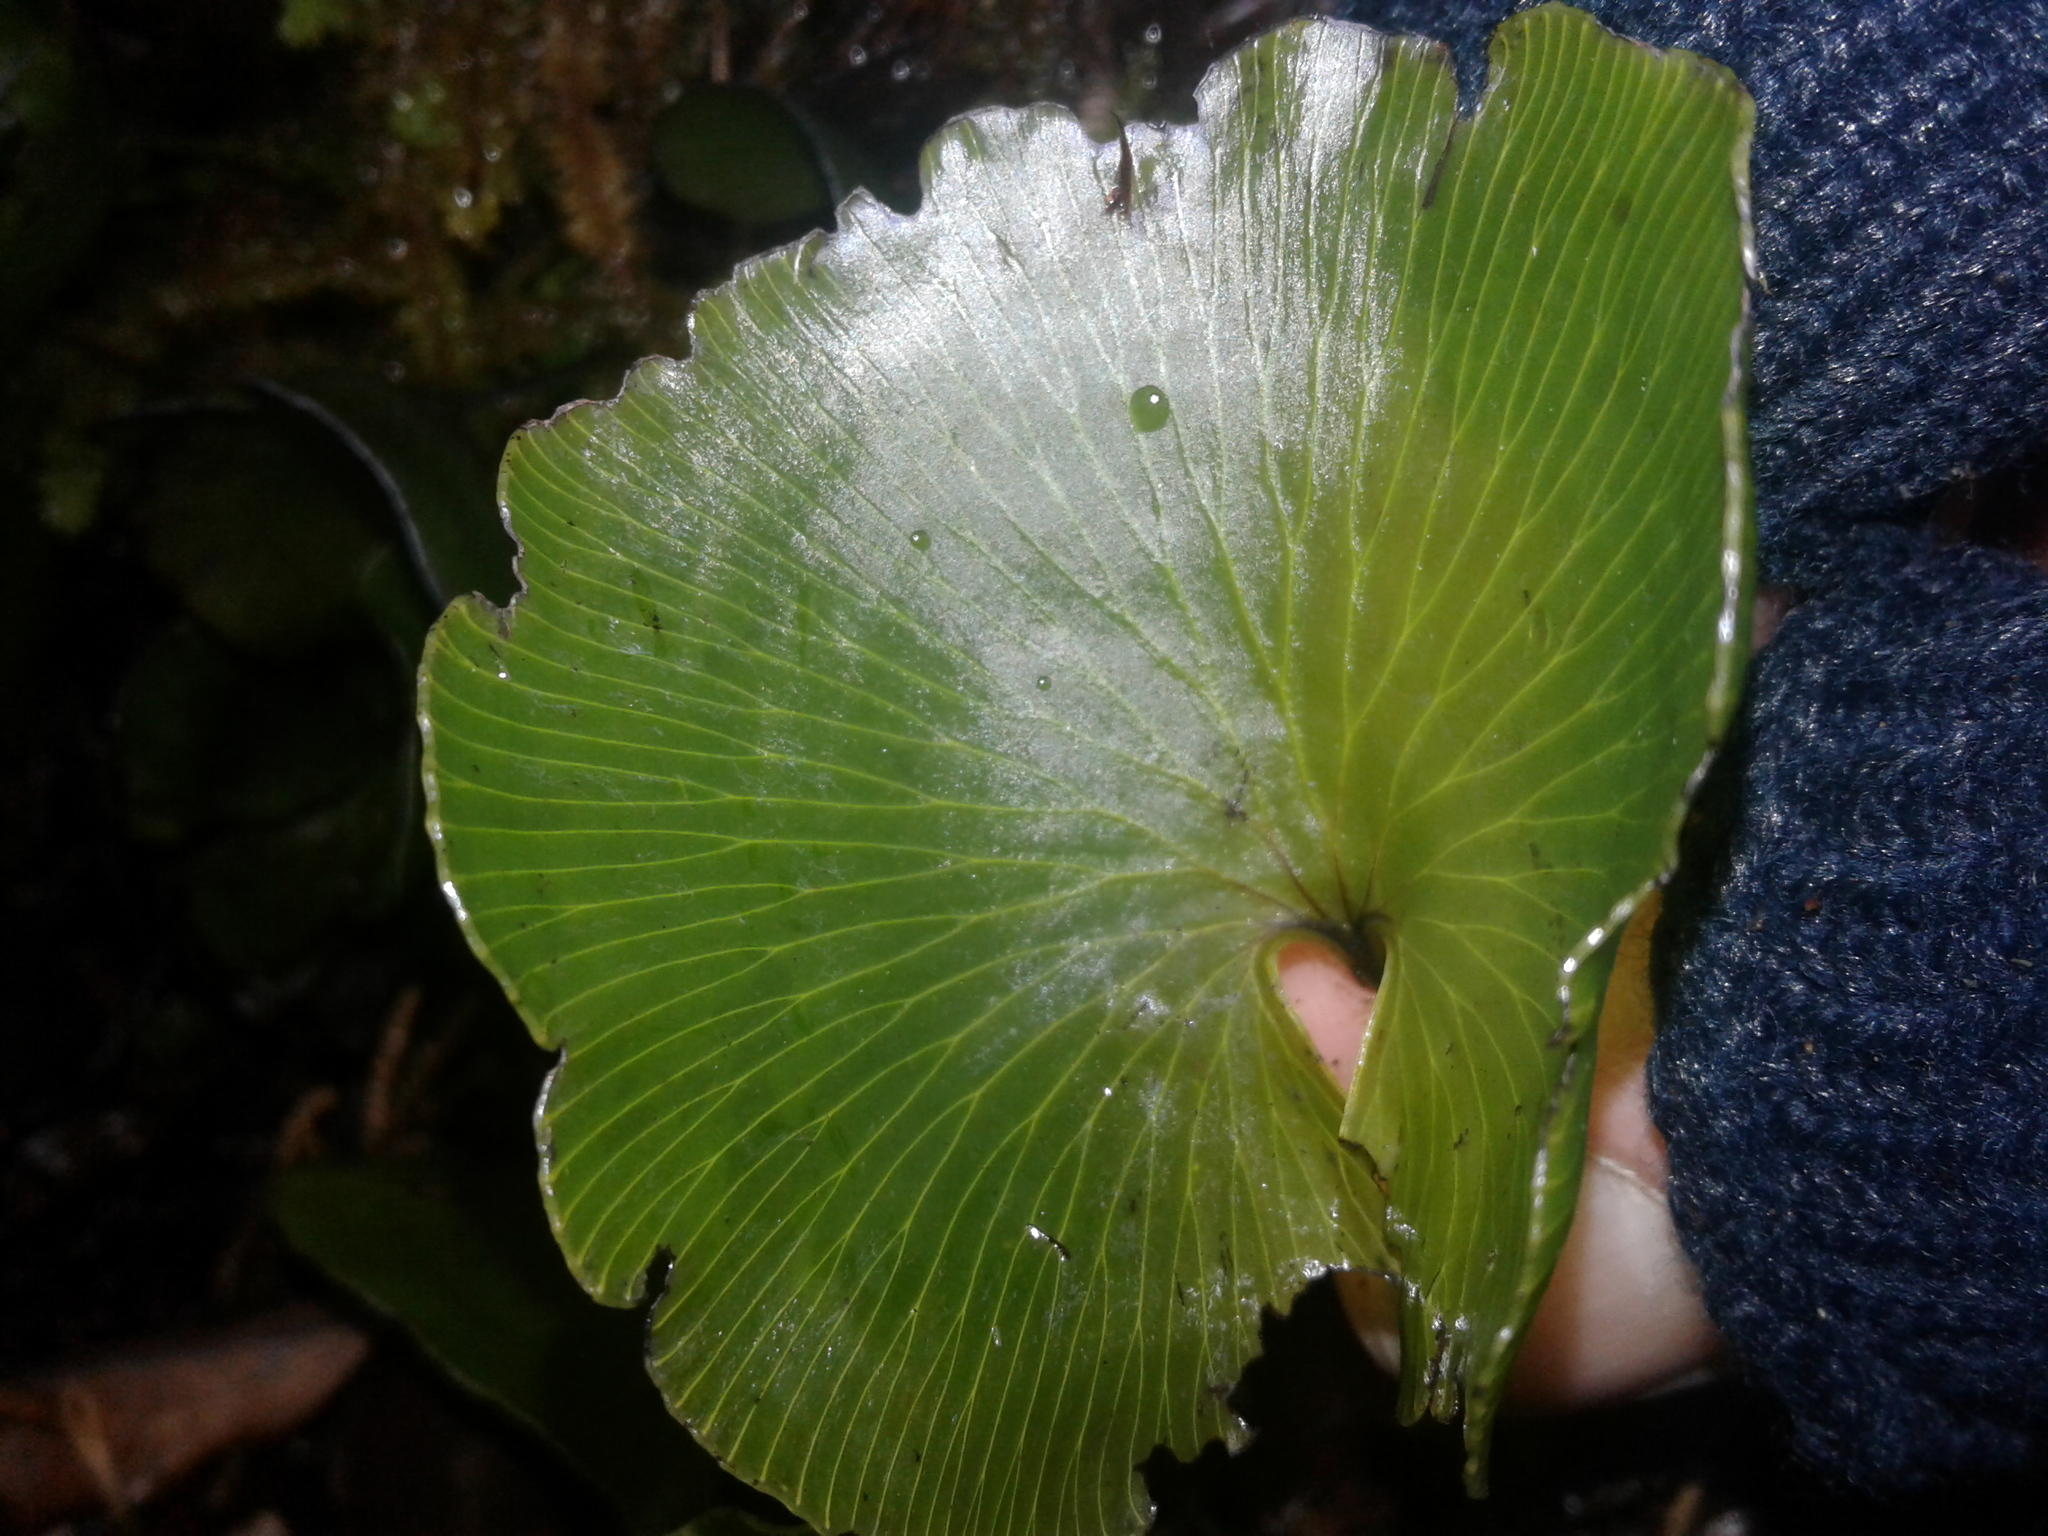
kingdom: Plantae
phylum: Tracheophyta
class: Polypodiopsida
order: Hymenophyllales
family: Hymenophyllaceae
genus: Hymenophyllum
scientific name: Hymenophyllum nephrophyllum
